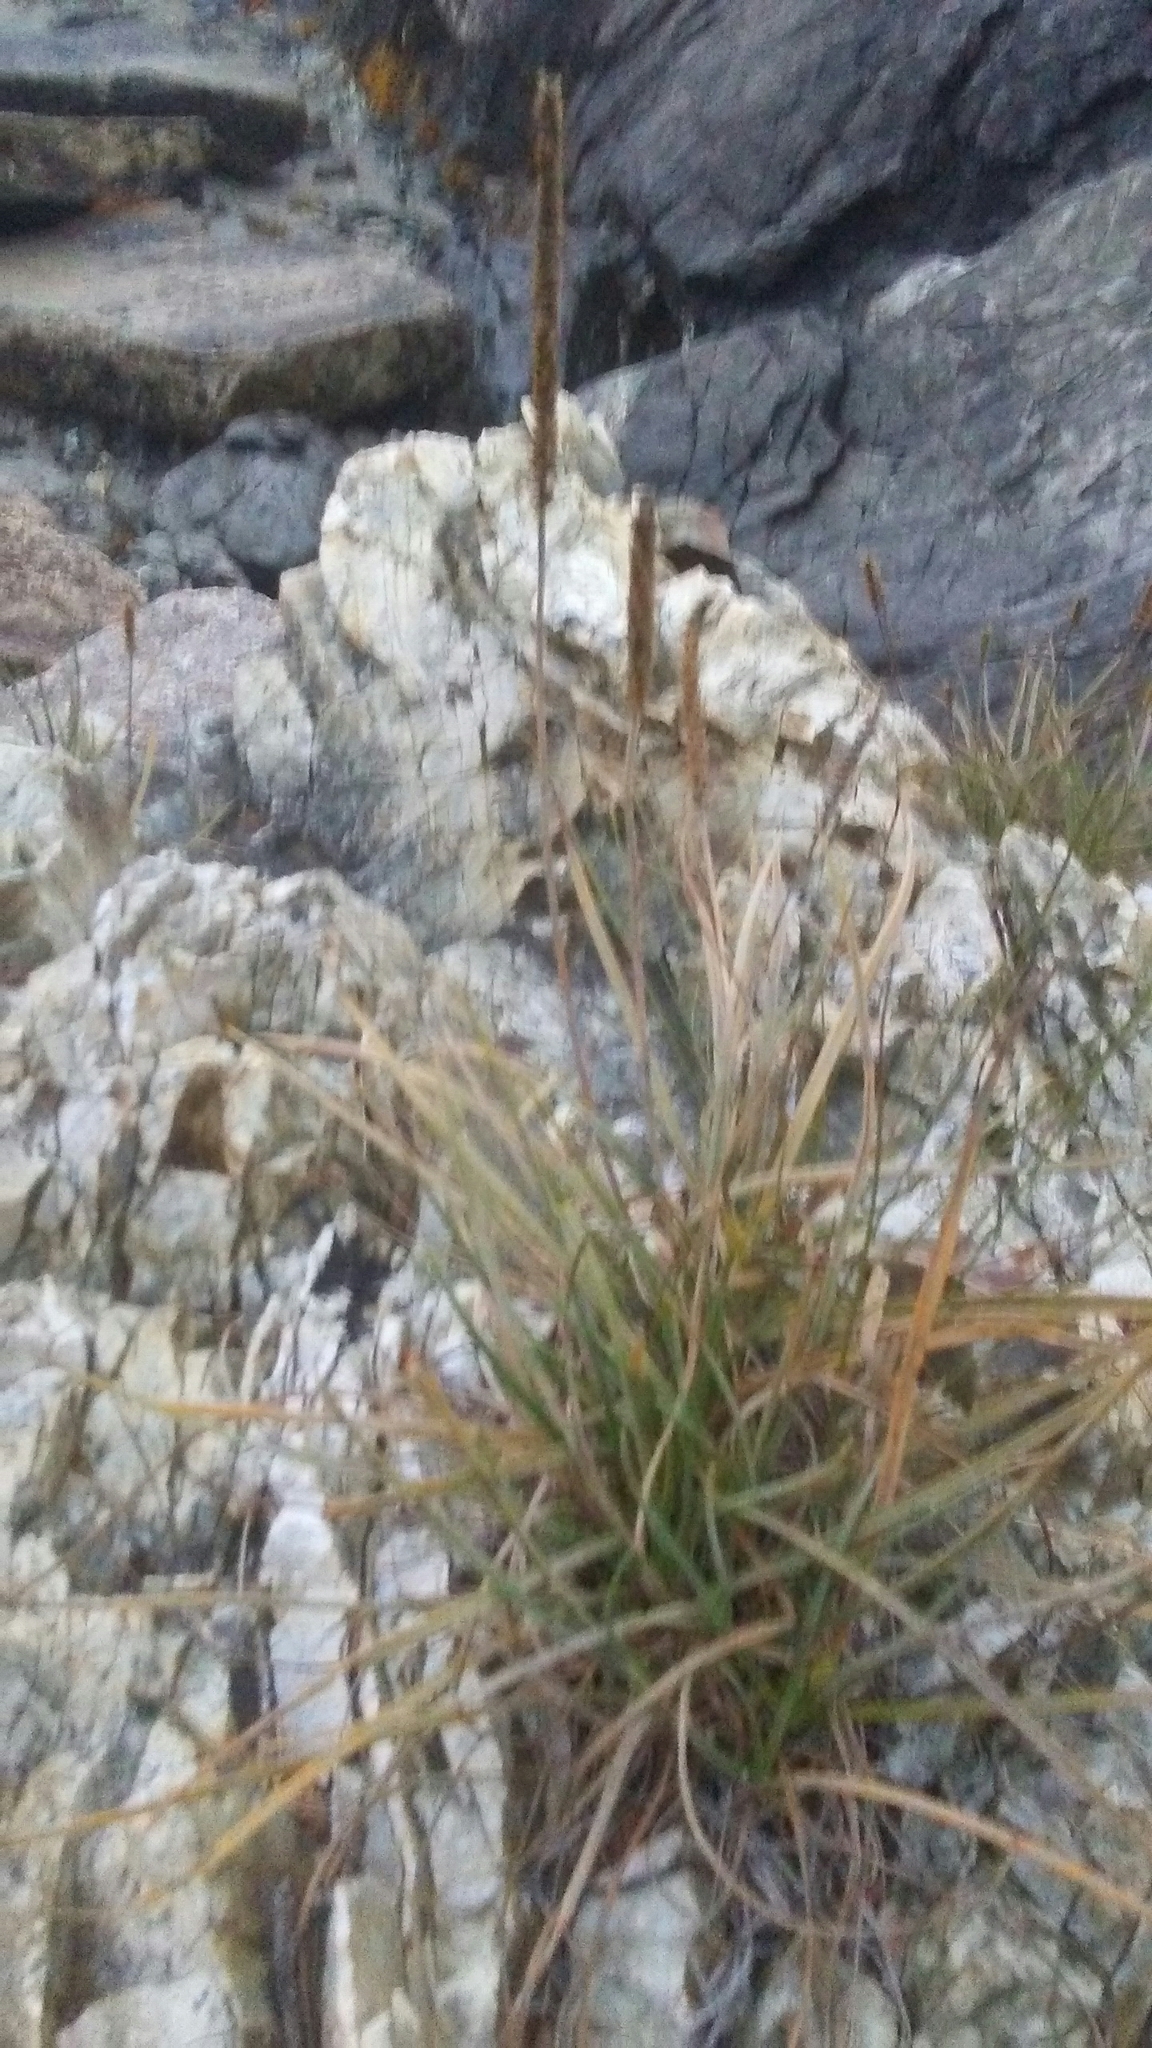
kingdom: Plantae
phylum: Tracheophyta
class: Magnoliopsida
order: Lamiales
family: Plantaginaceae
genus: Plantago
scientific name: Plantago maritima
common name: Sea plantain
